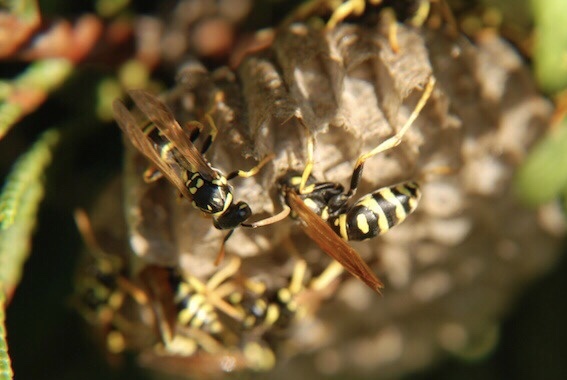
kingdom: Animalia
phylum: Arthropoda
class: Insecta
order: Hymenoptera
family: Eumenidae
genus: Polistes
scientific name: Polistes dominula
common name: Paper wasp
